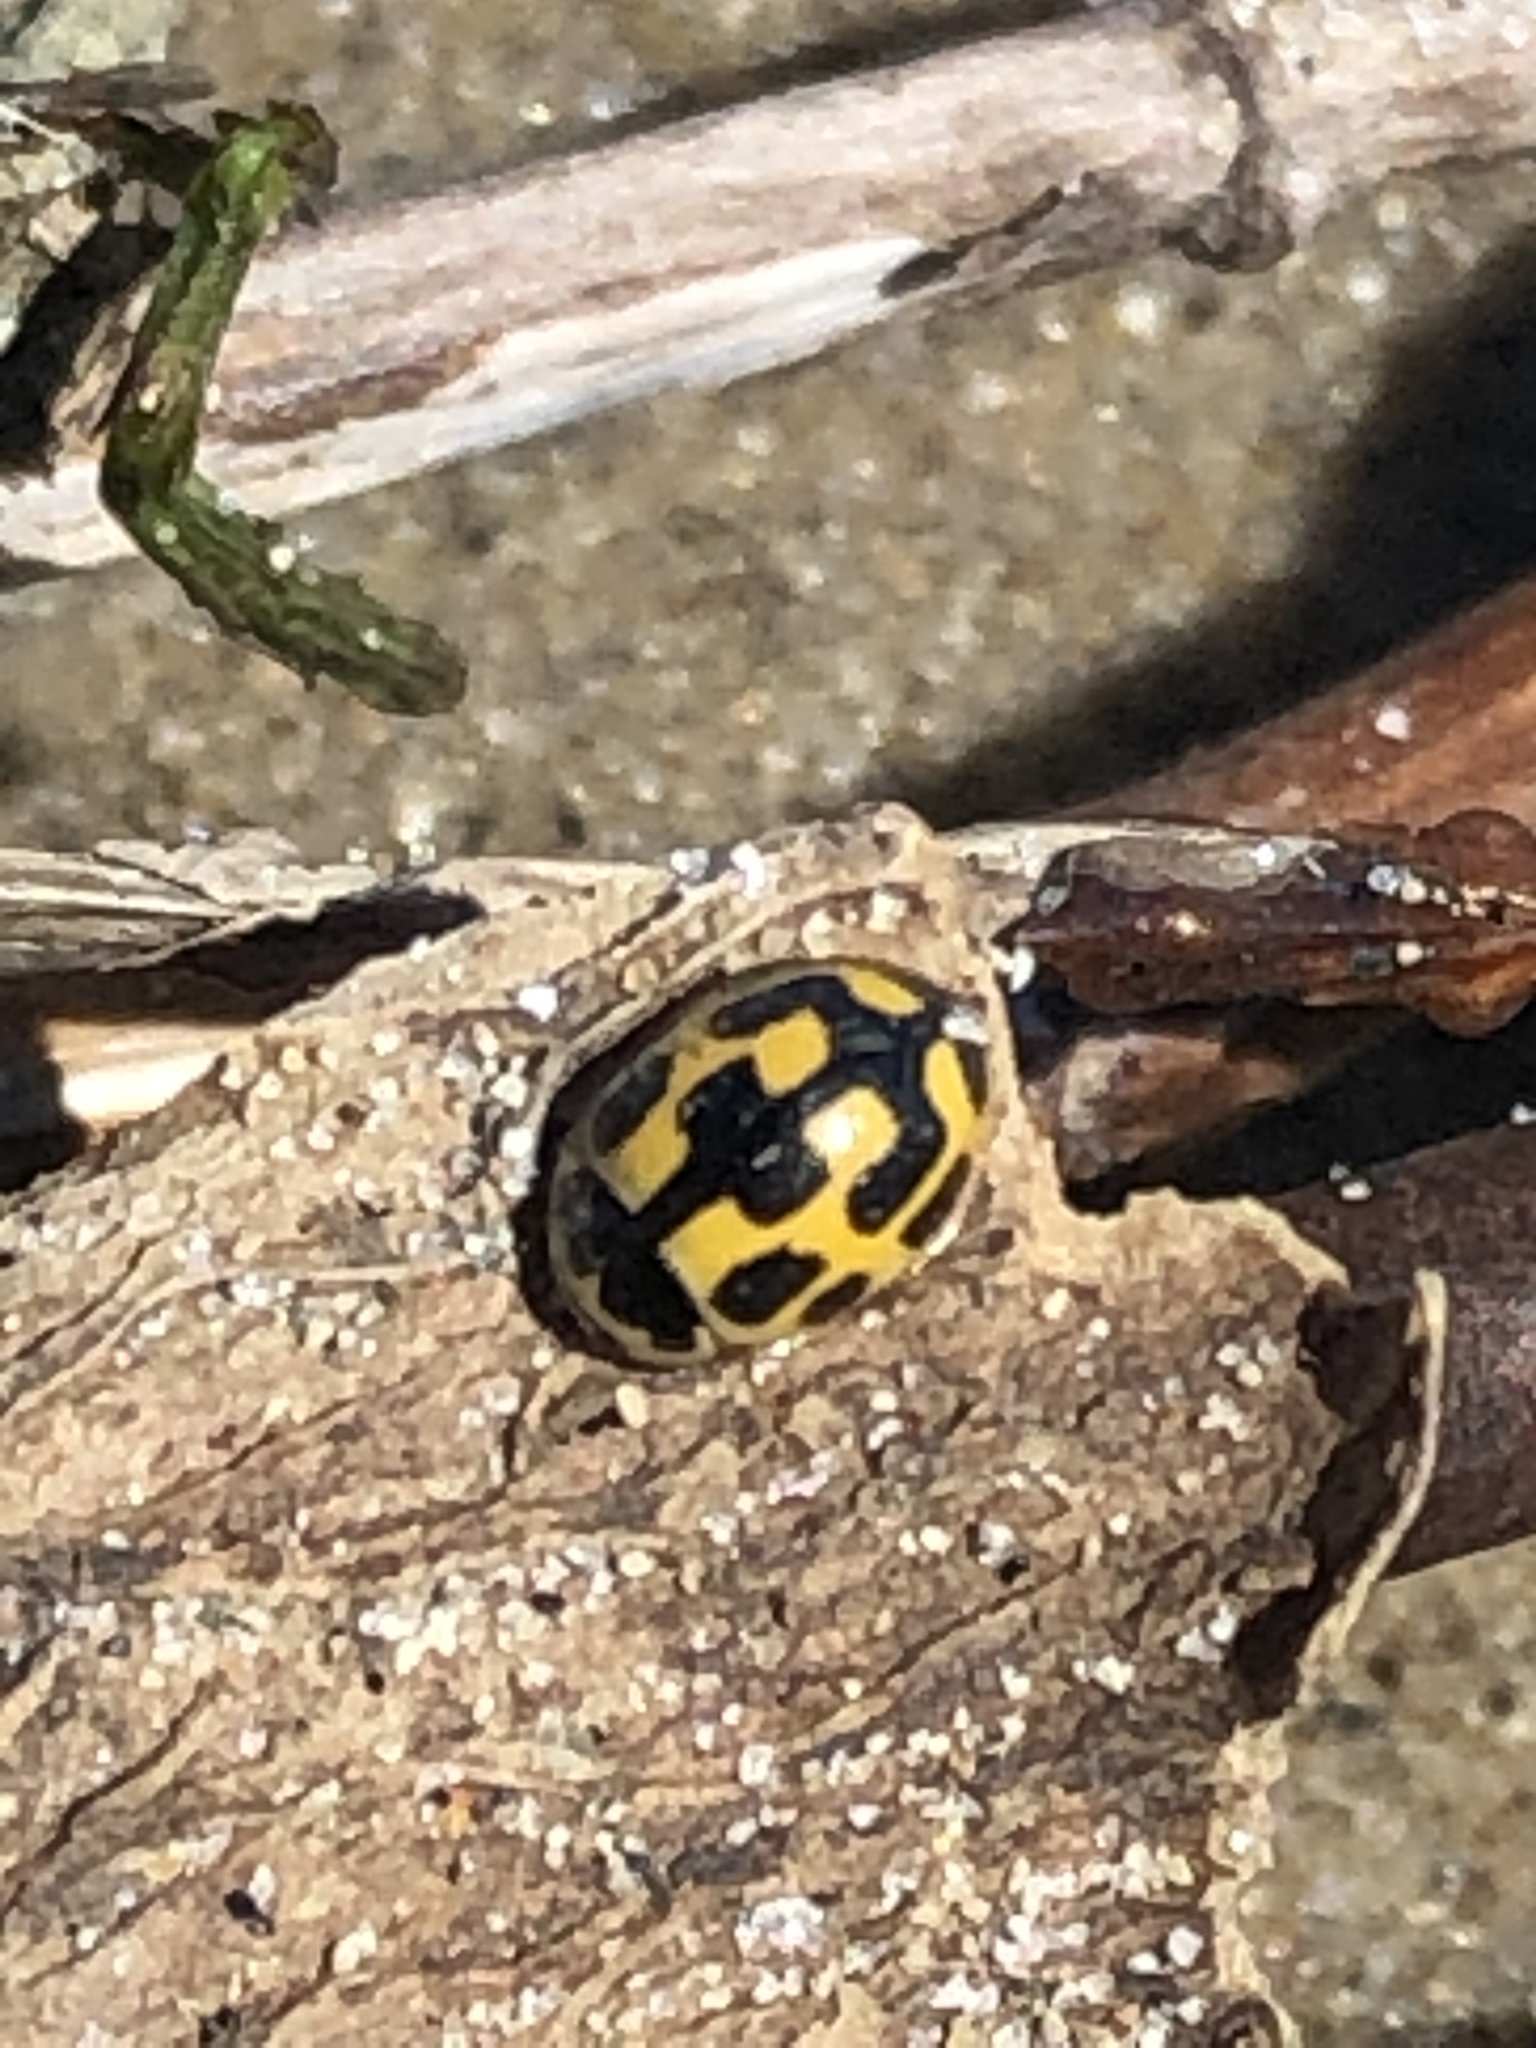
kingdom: Animalia
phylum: Arthropoda
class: Insecta
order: Coleoptera
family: Coccinellidae
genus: Propylaea
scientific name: Propylaea quatuordecimpunctata
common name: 14-spotted ladybird beetle
